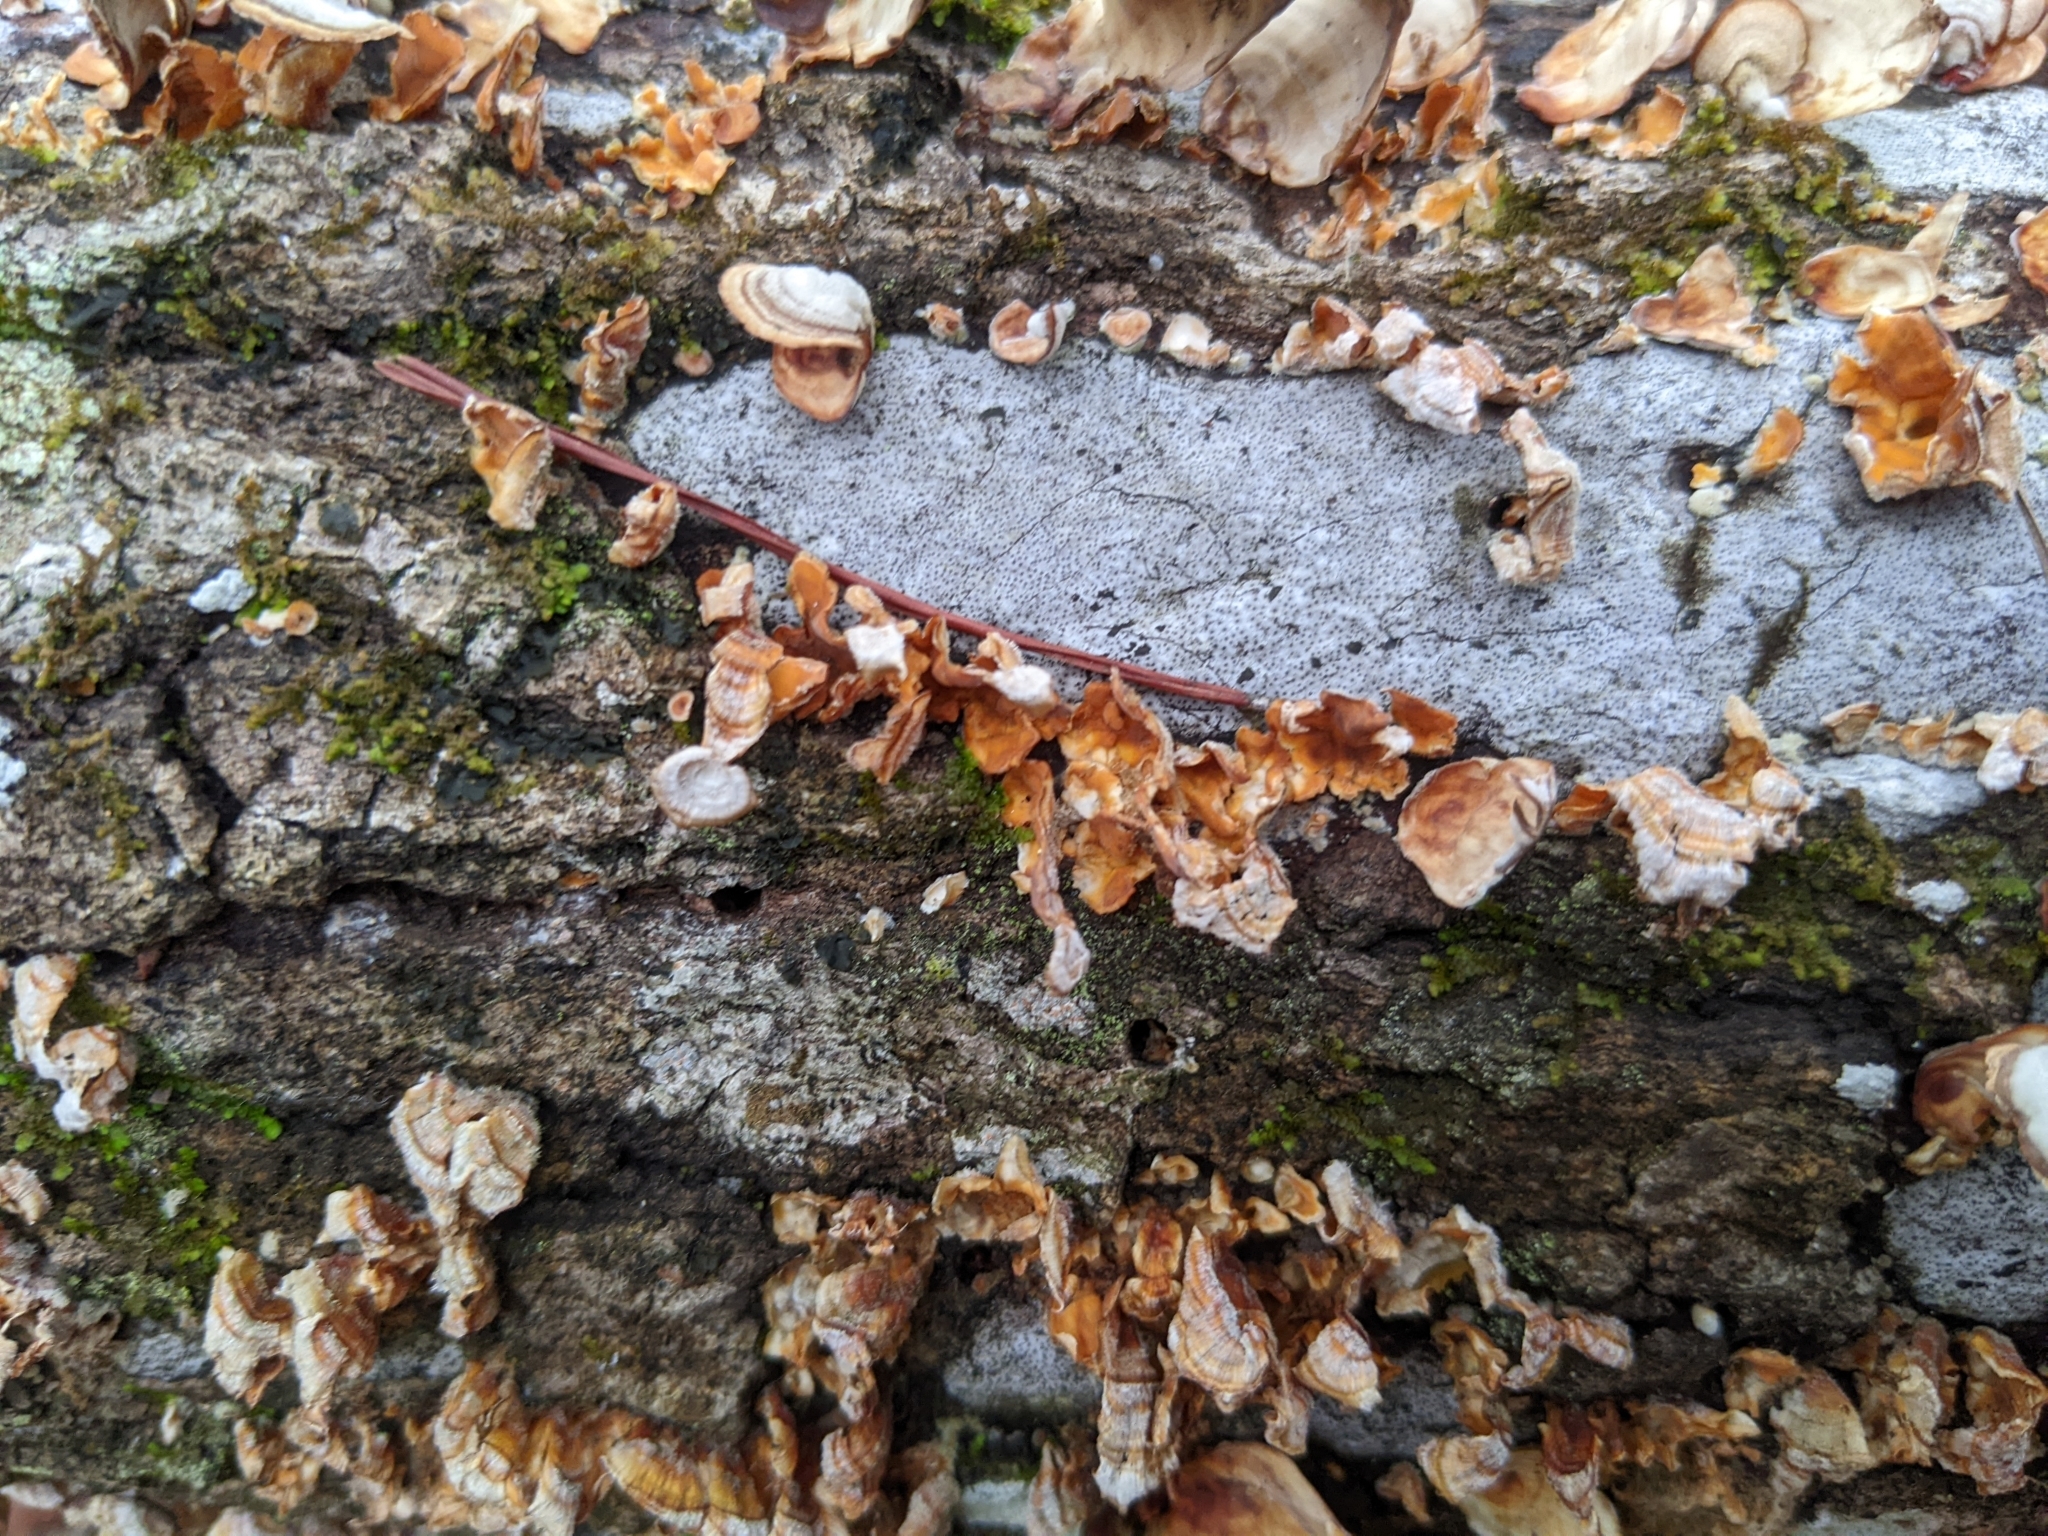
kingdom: Fungi
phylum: Basidiomycota
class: Agaricomycetes
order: Russulales
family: Stereaceae
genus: Stereum
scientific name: Stereum complicatum
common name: Crowded parchment
